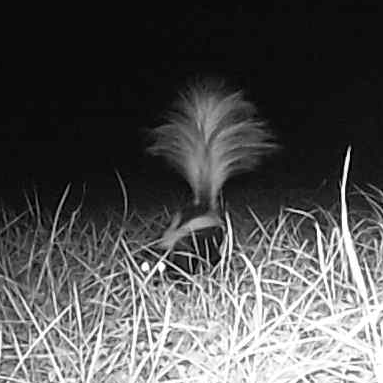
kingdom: Animalia
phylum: Chordata
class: Mammalia
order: Carnivora
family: Mephitidae
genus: Mephitis
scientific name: Mephitis mephitis
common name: Striped skunk
